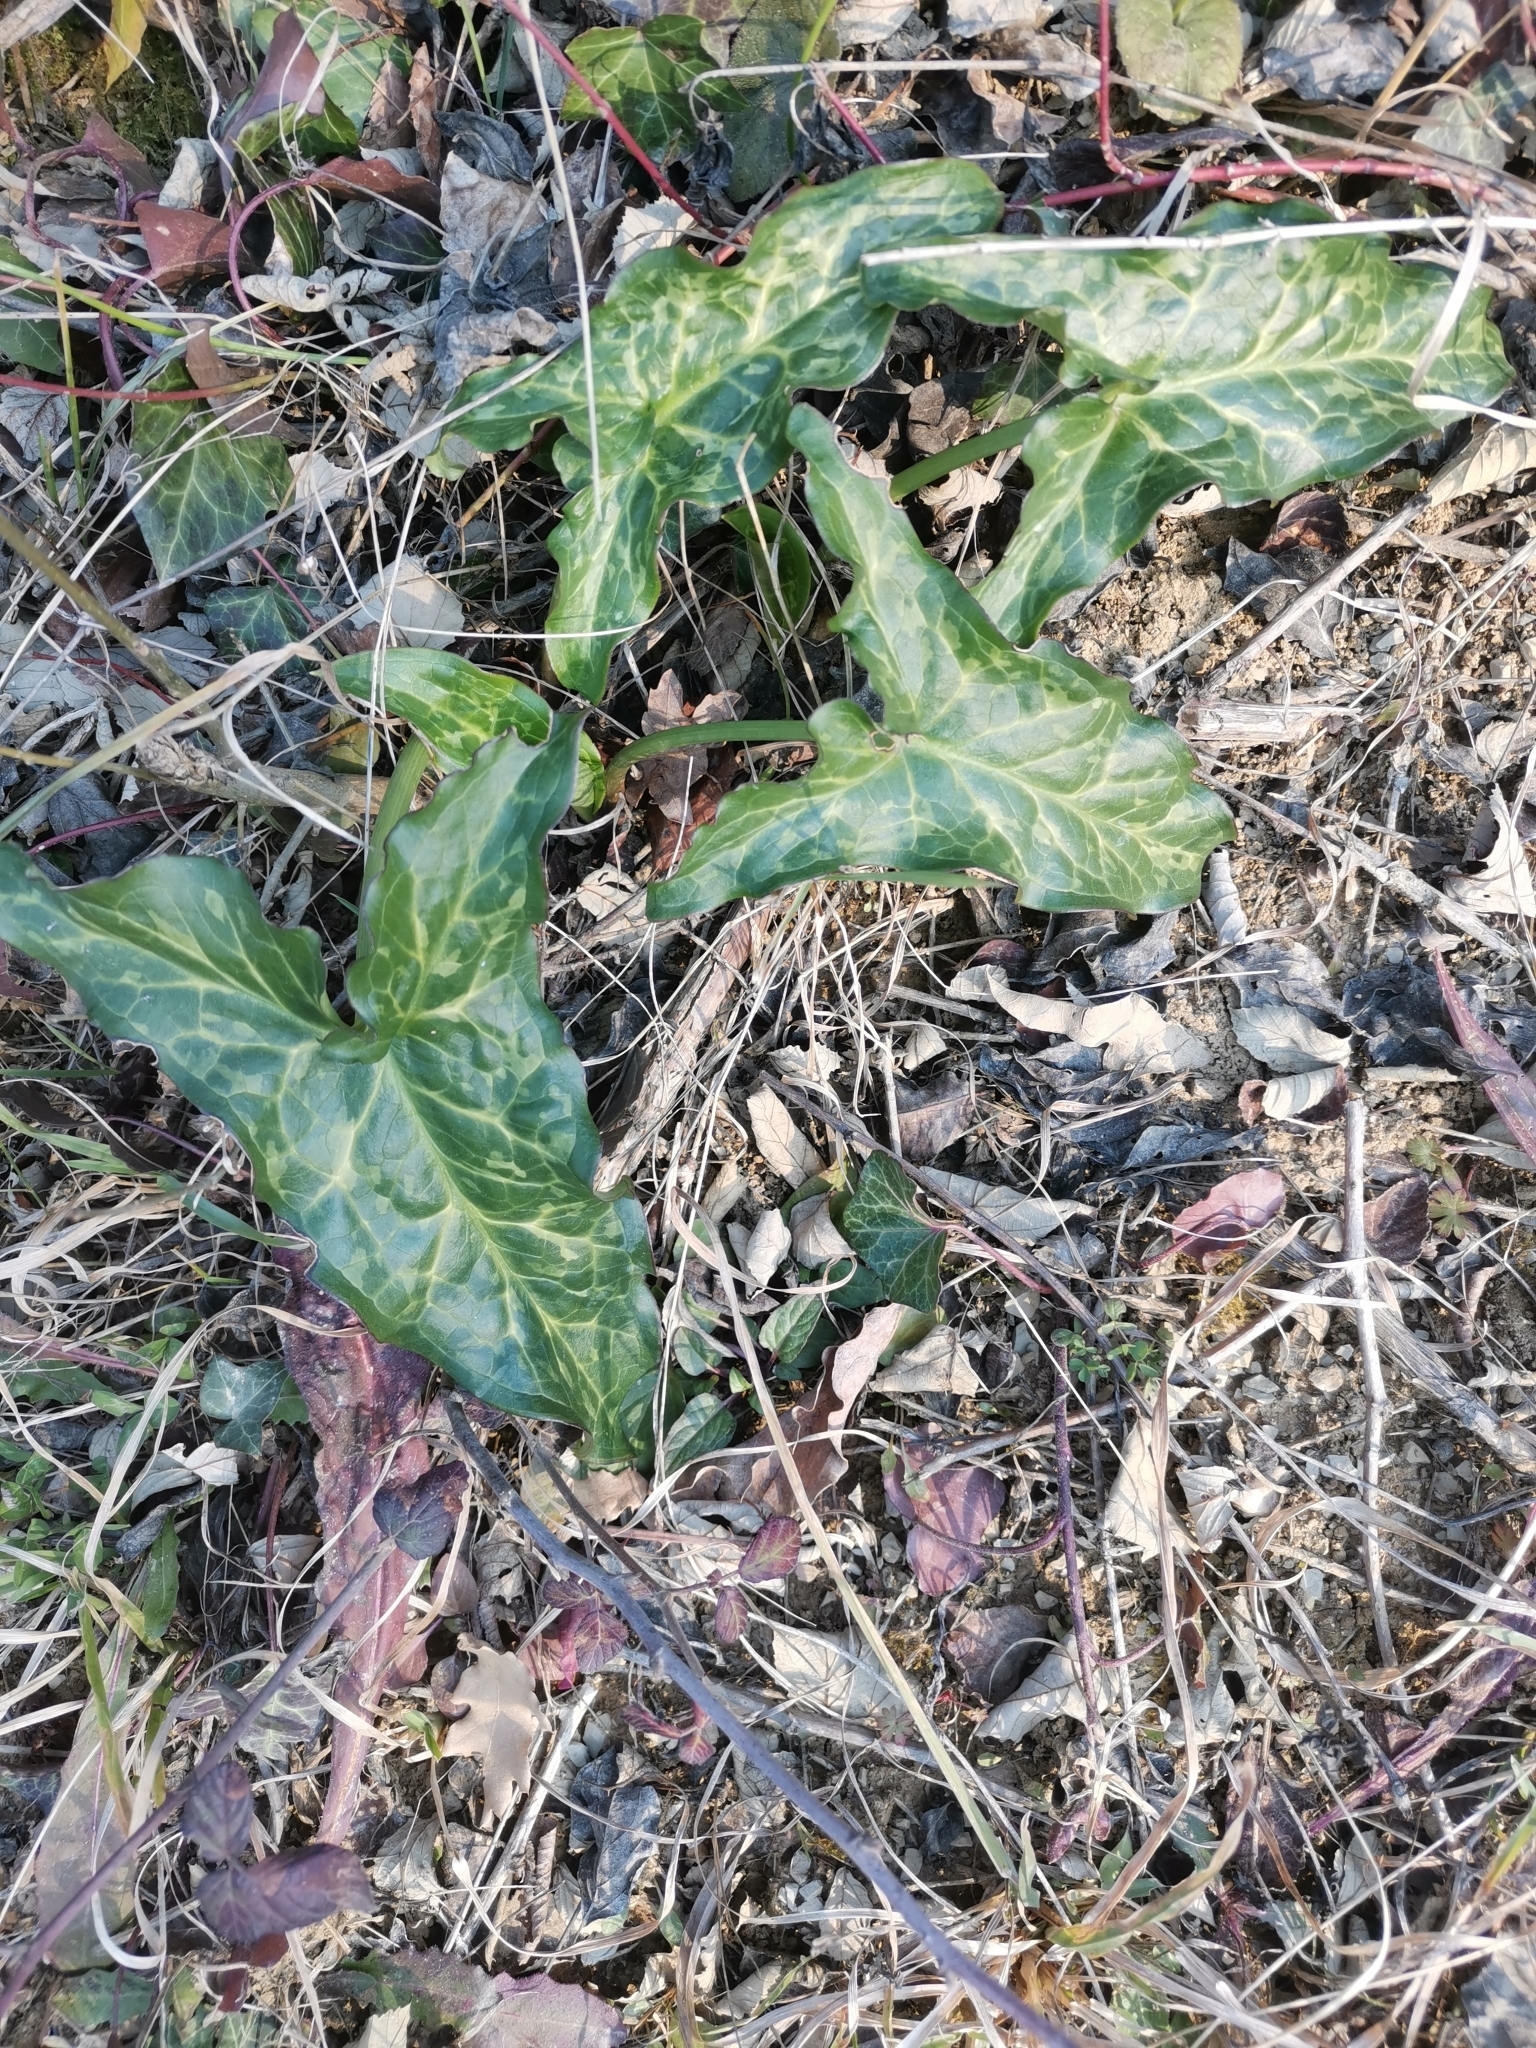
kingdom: Plantae
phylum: Tracheophyta
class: Liliopsida
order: Alismatales
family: Araceae
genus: Arum
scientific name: Arum italicum
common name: Italian lords-and-ladies
